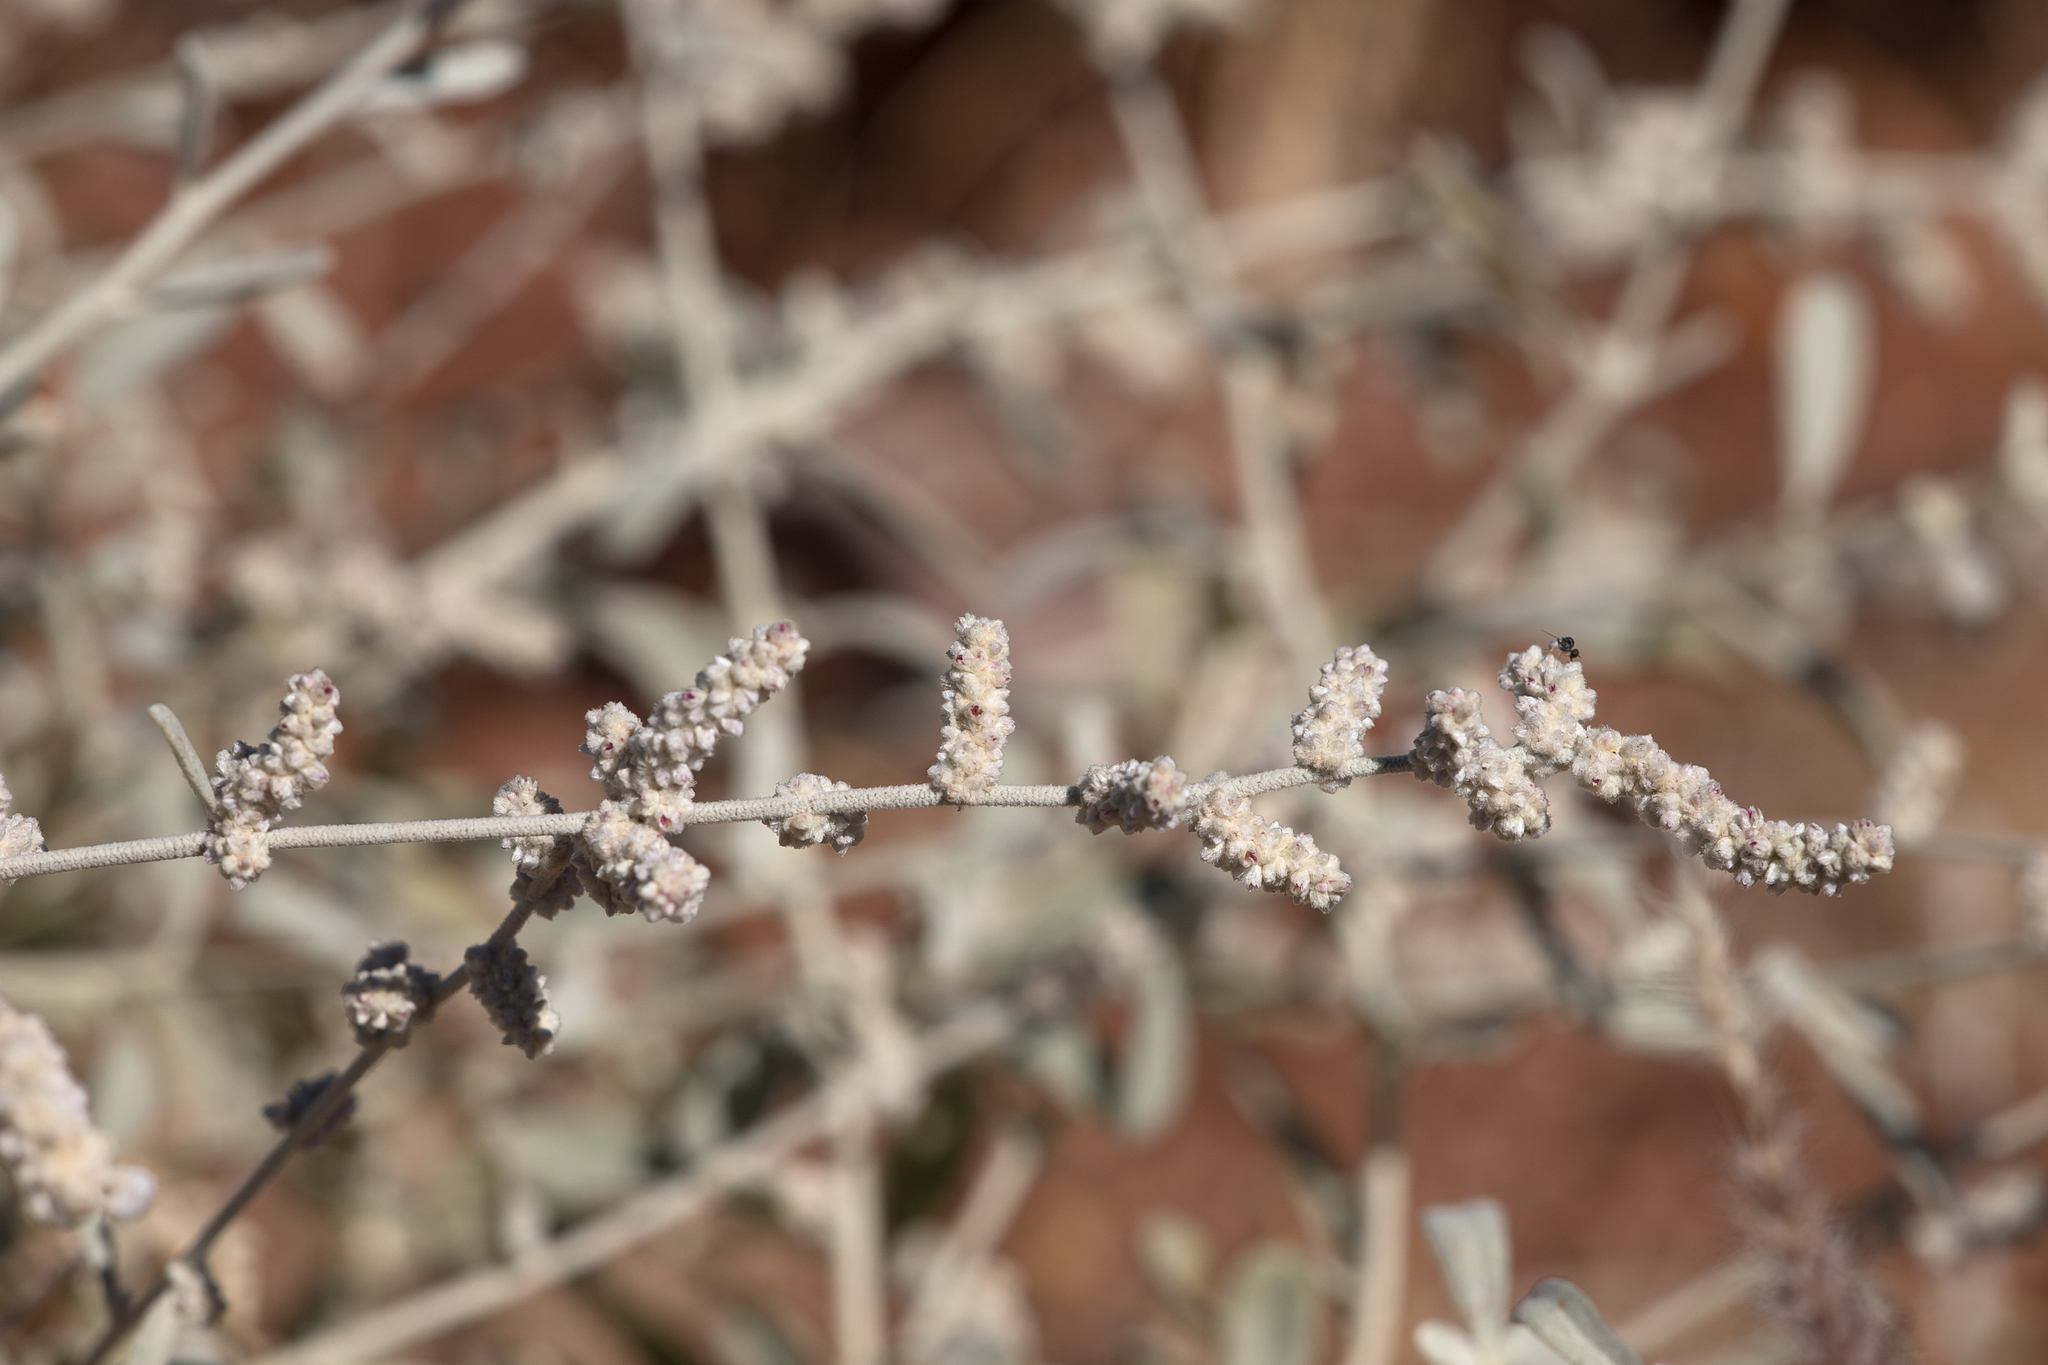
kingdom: Plantae
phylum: Tracheophyta
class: Magnoliopsida
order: Caryophyllales
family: Amaranthaceae
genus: Aerva
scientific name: Aerva javanica
